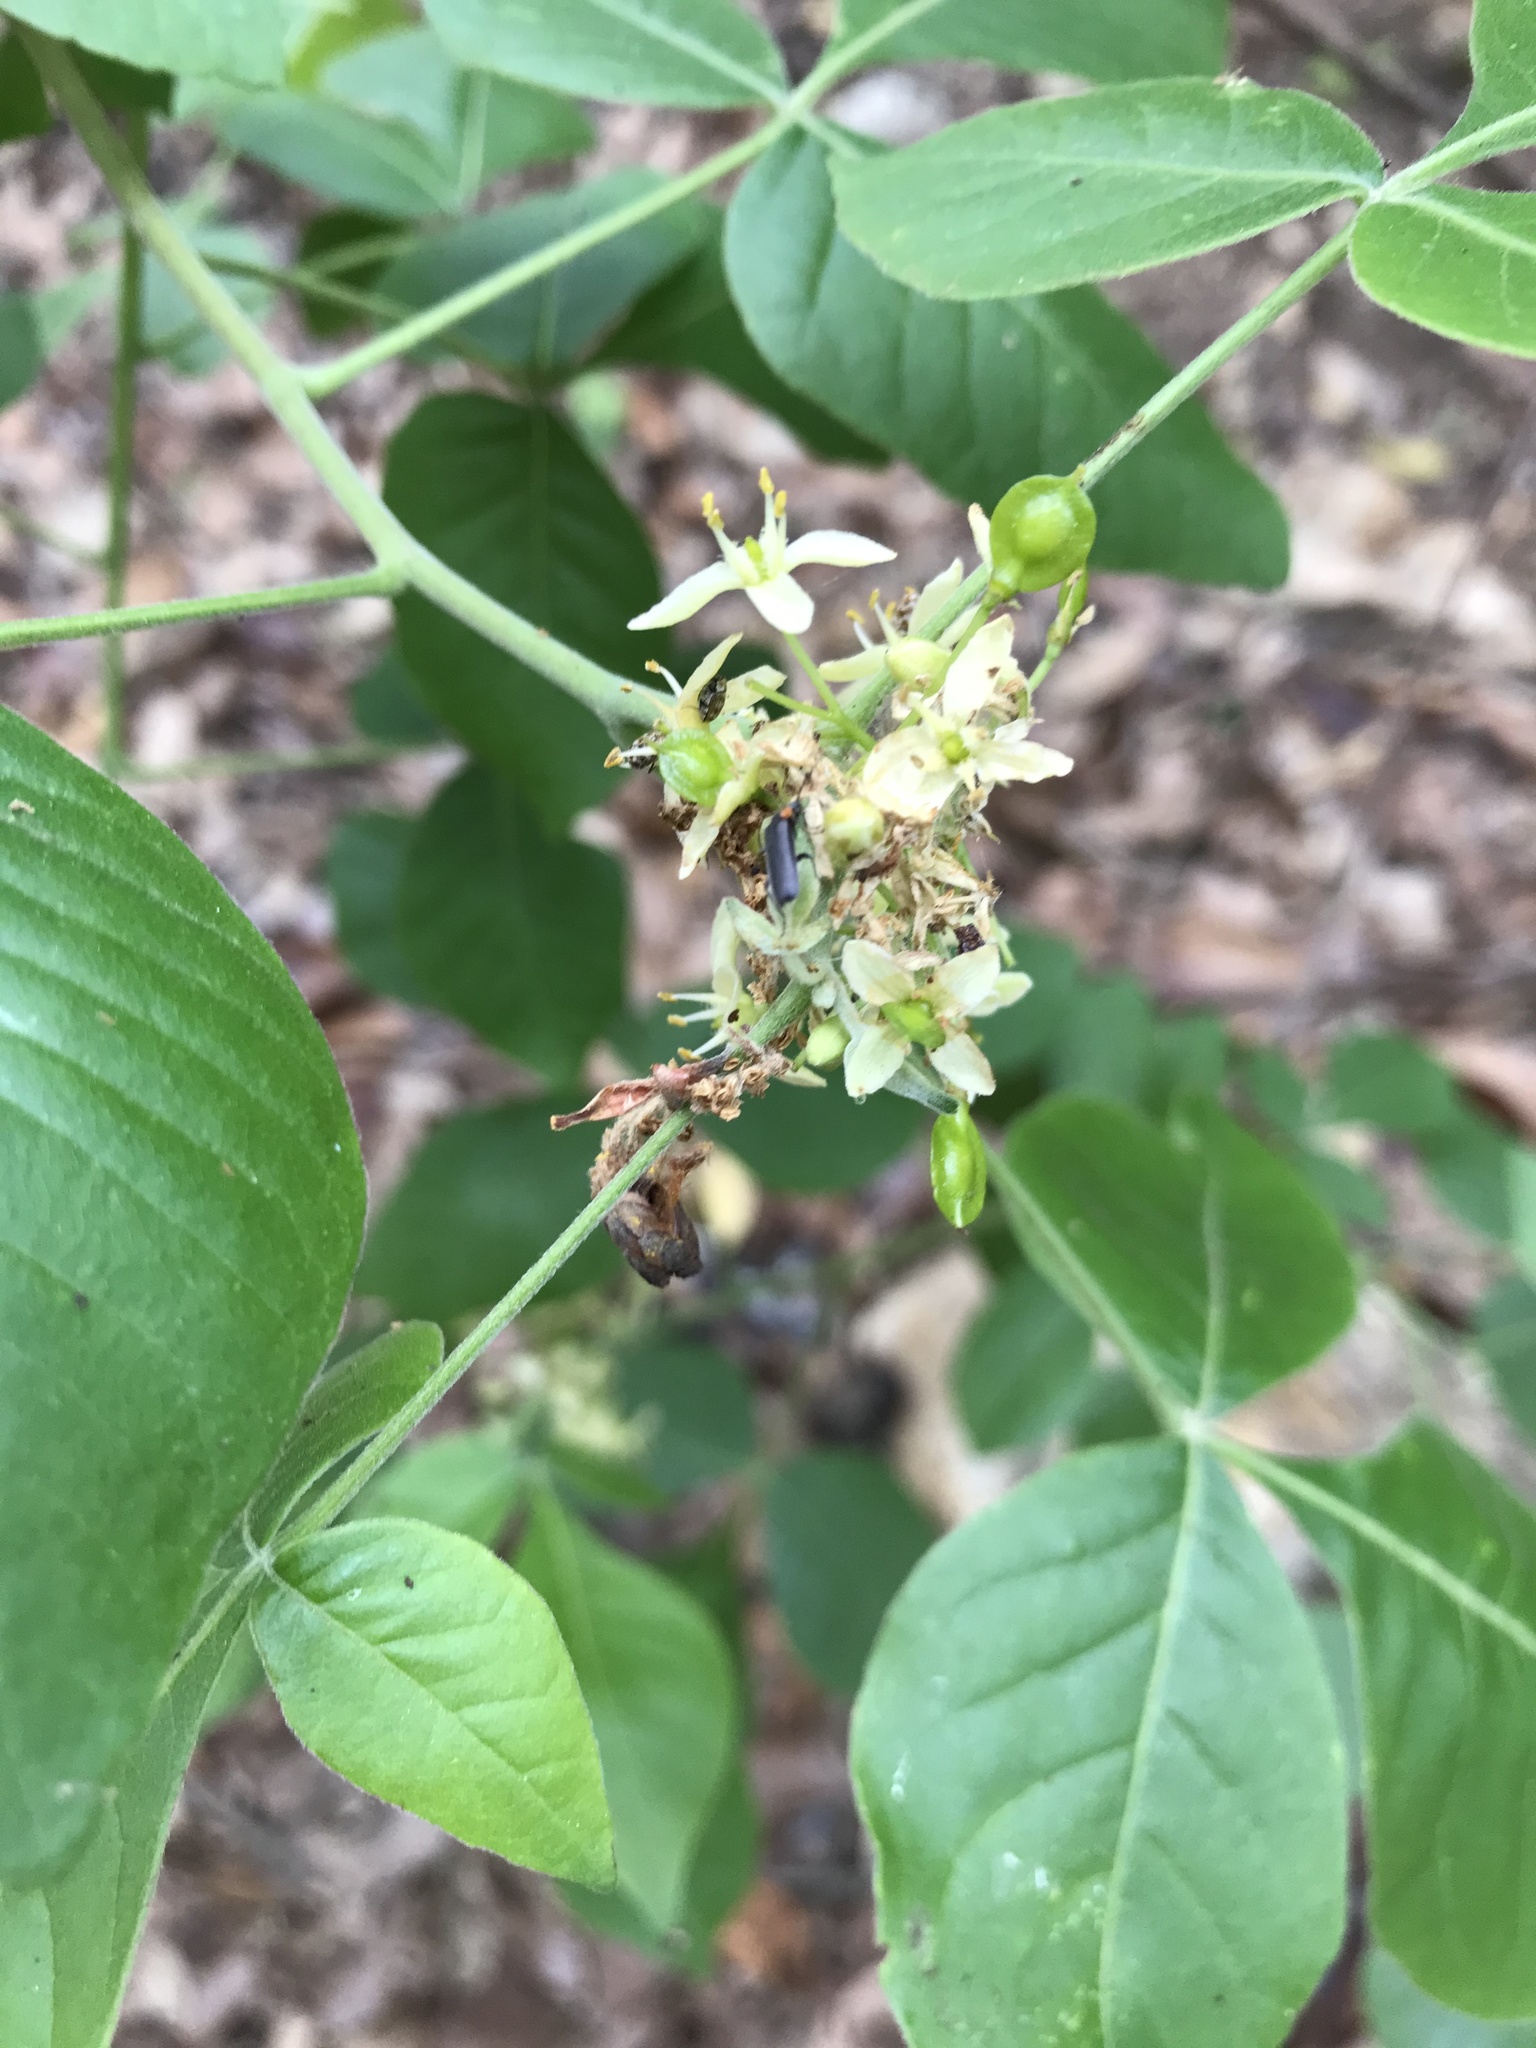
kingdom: Plantae
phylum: Tracheophyta
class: Magnoliopsida
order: Sapindales
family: Rutaceae
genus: Ptelea
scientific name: Ptelea trifoliata
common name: Common hop-tree
